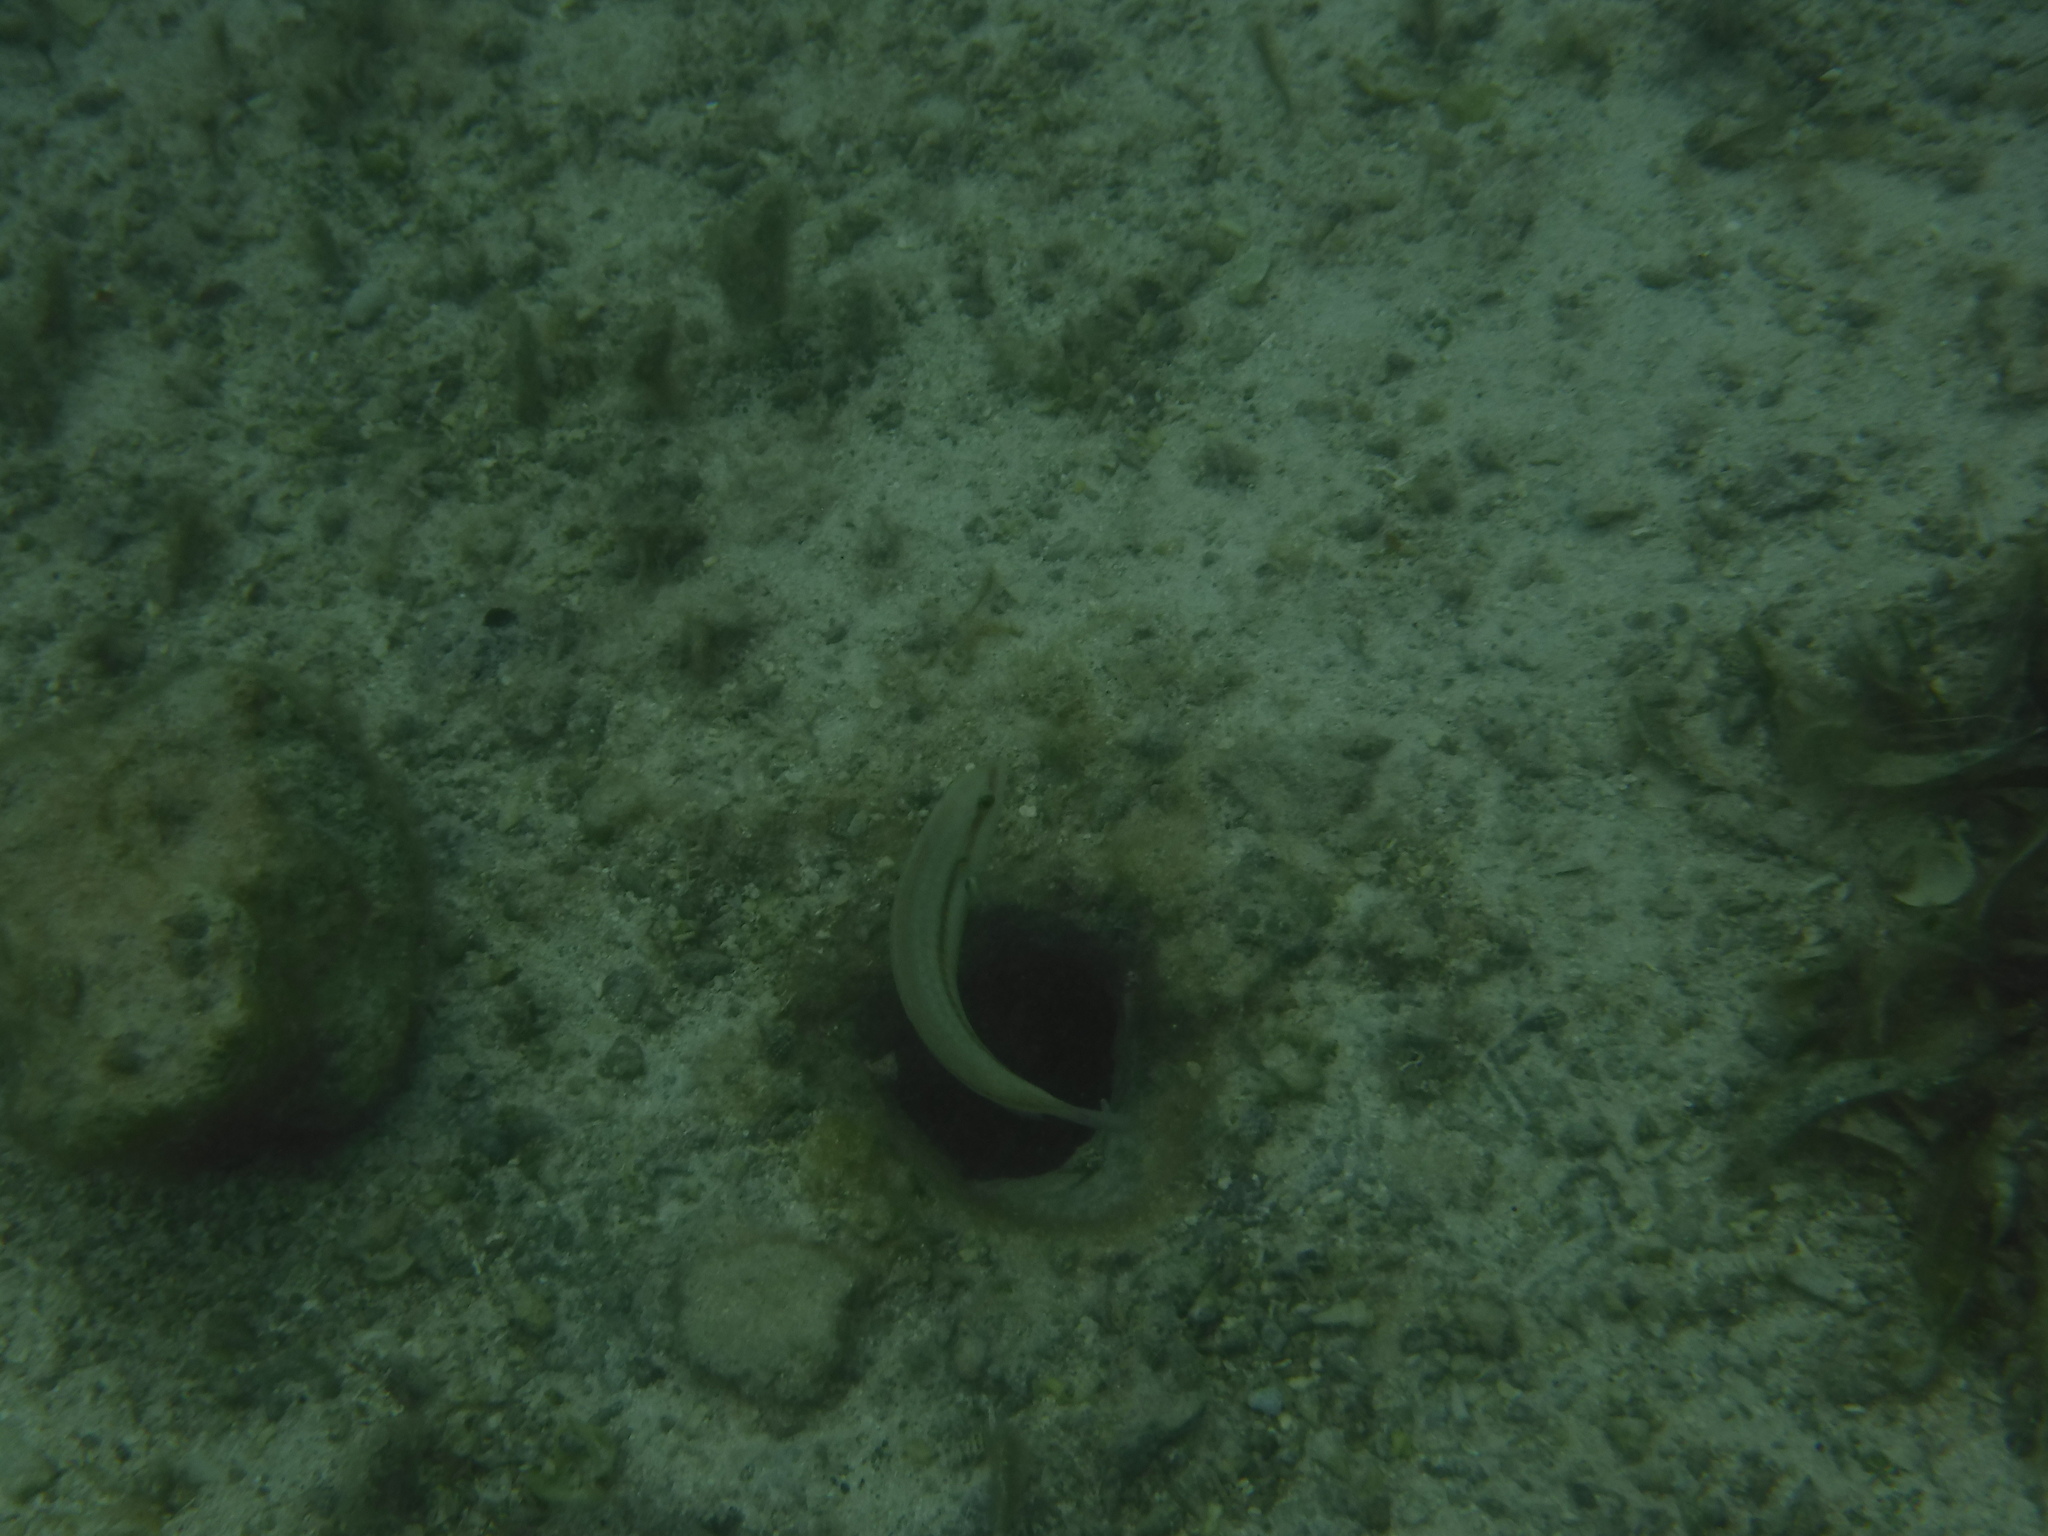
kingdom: Animalia
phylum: Chordata
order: Perciformes
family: Labridae
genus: Halichoeres
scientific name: Halichoeres bivittatus
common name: Slippery dick
